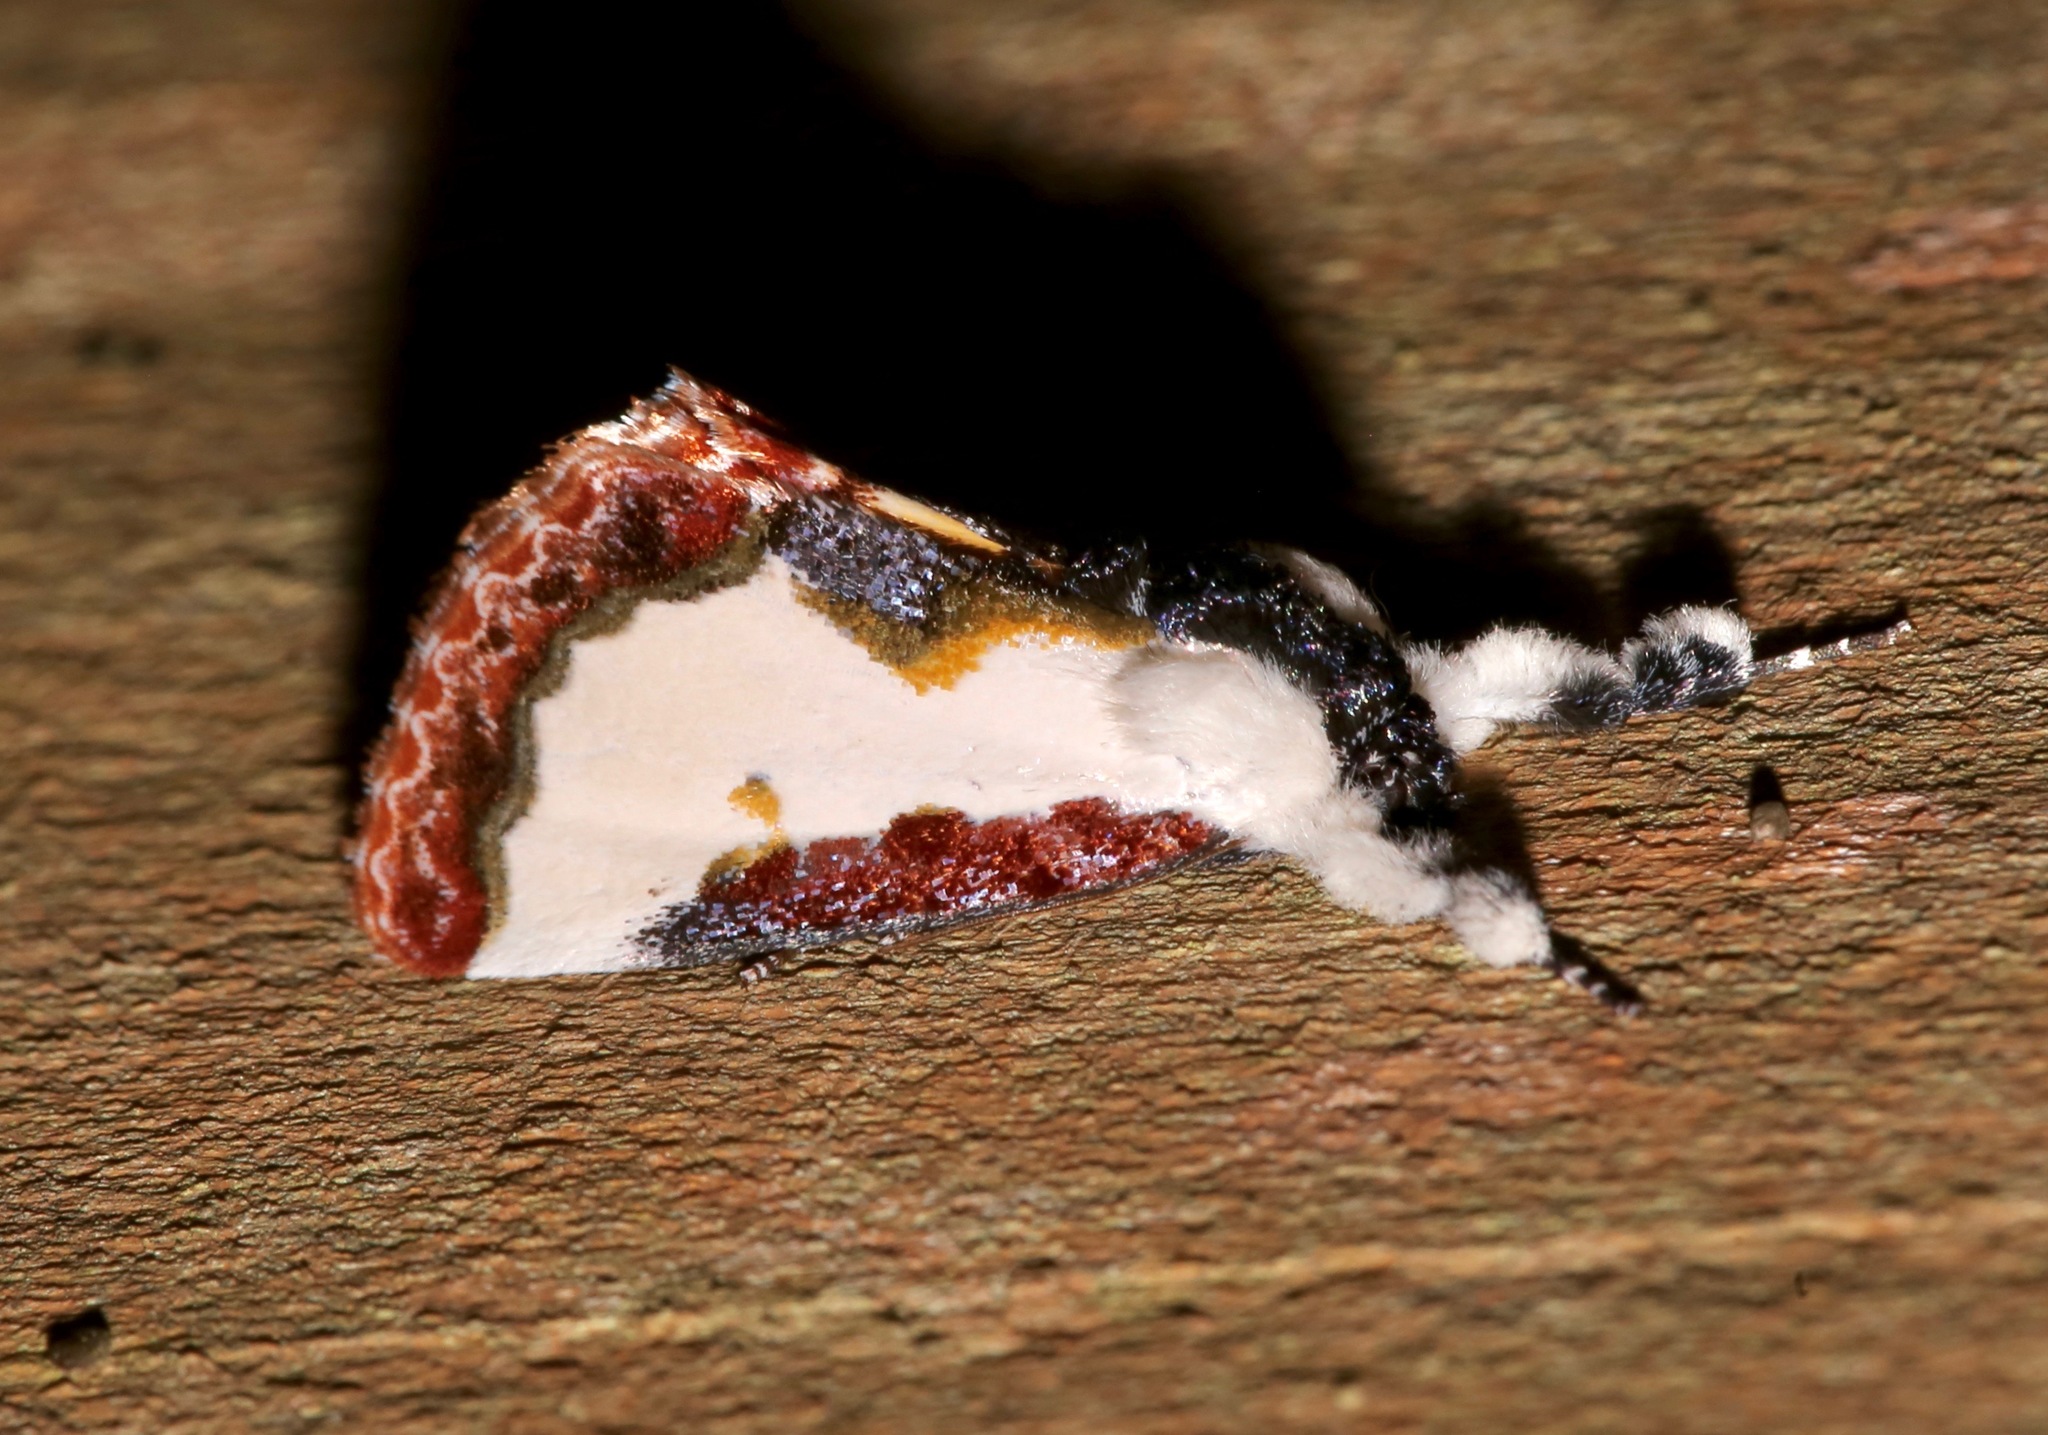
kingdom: Animalia
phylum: Arthropoda
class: Insecta
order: Lepidoptera
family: Noctuidae
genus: Eudryas
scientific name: Eudryas unio
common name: Pearly wood-nymph
